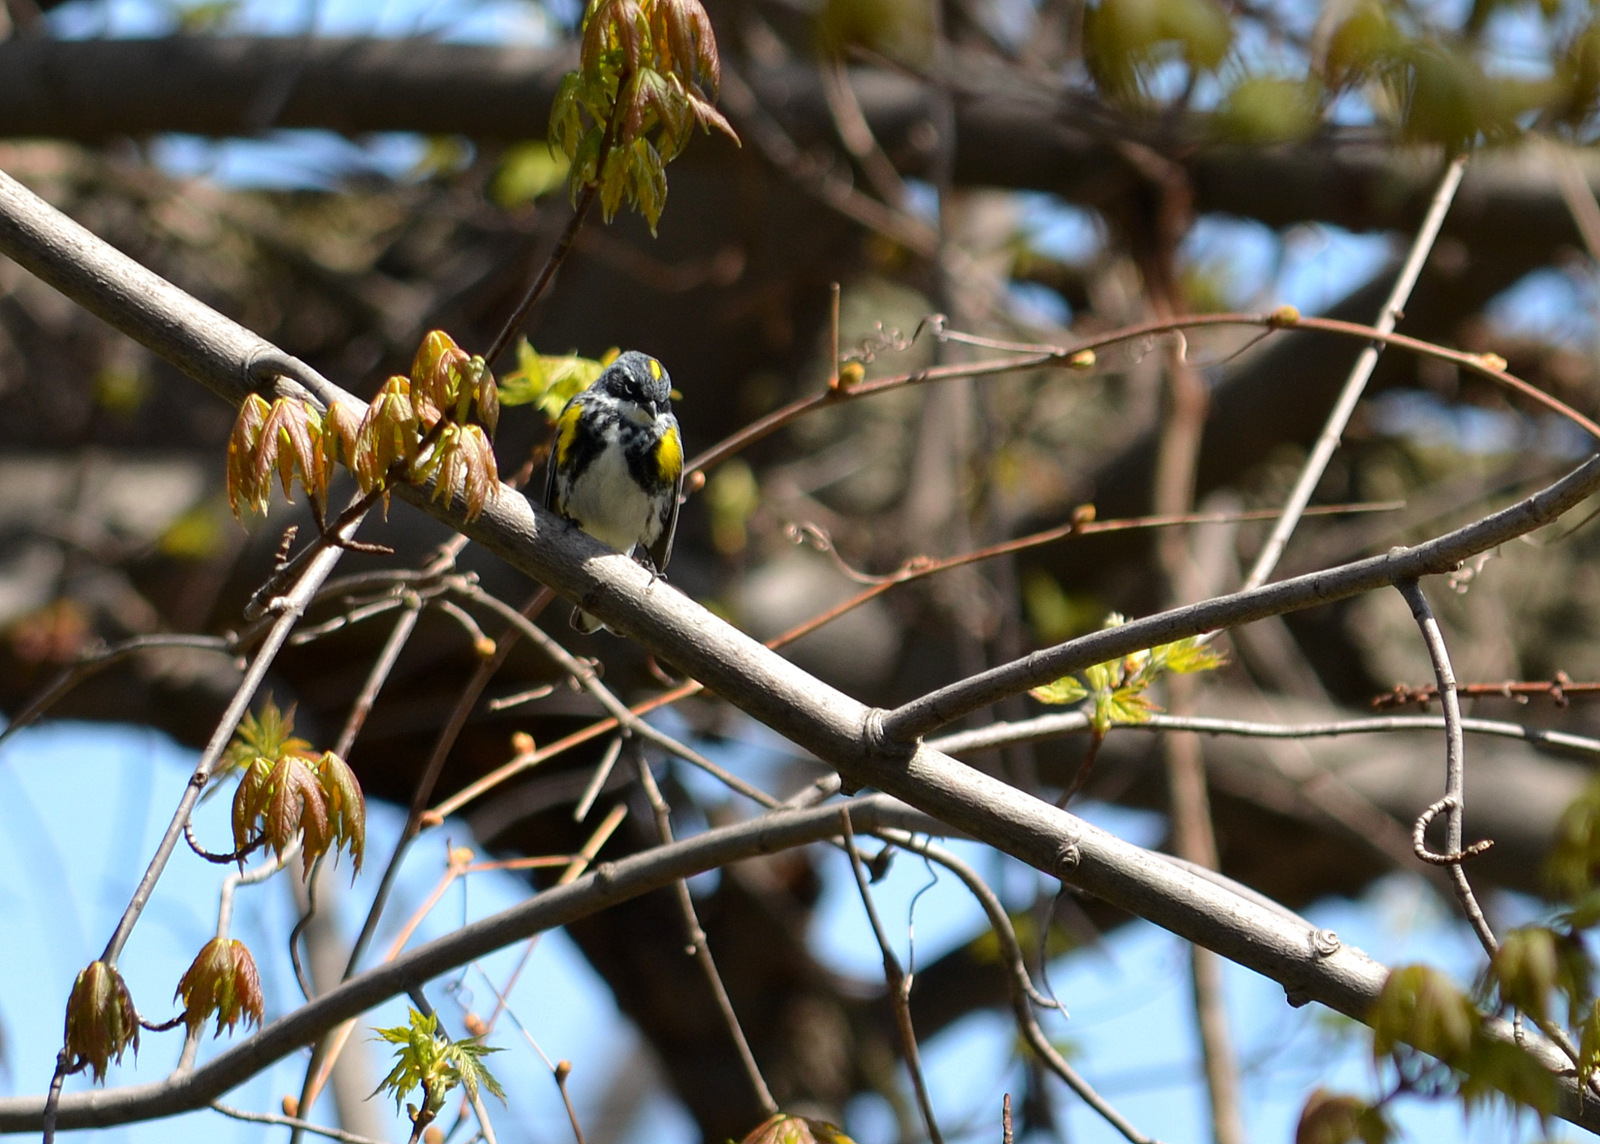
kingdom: Animalia
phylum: Chordata
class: Aves
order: Passeriformes
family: Parulidae
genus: Setophaga
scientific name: Setophaga coronata
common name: Myrtle warbler
